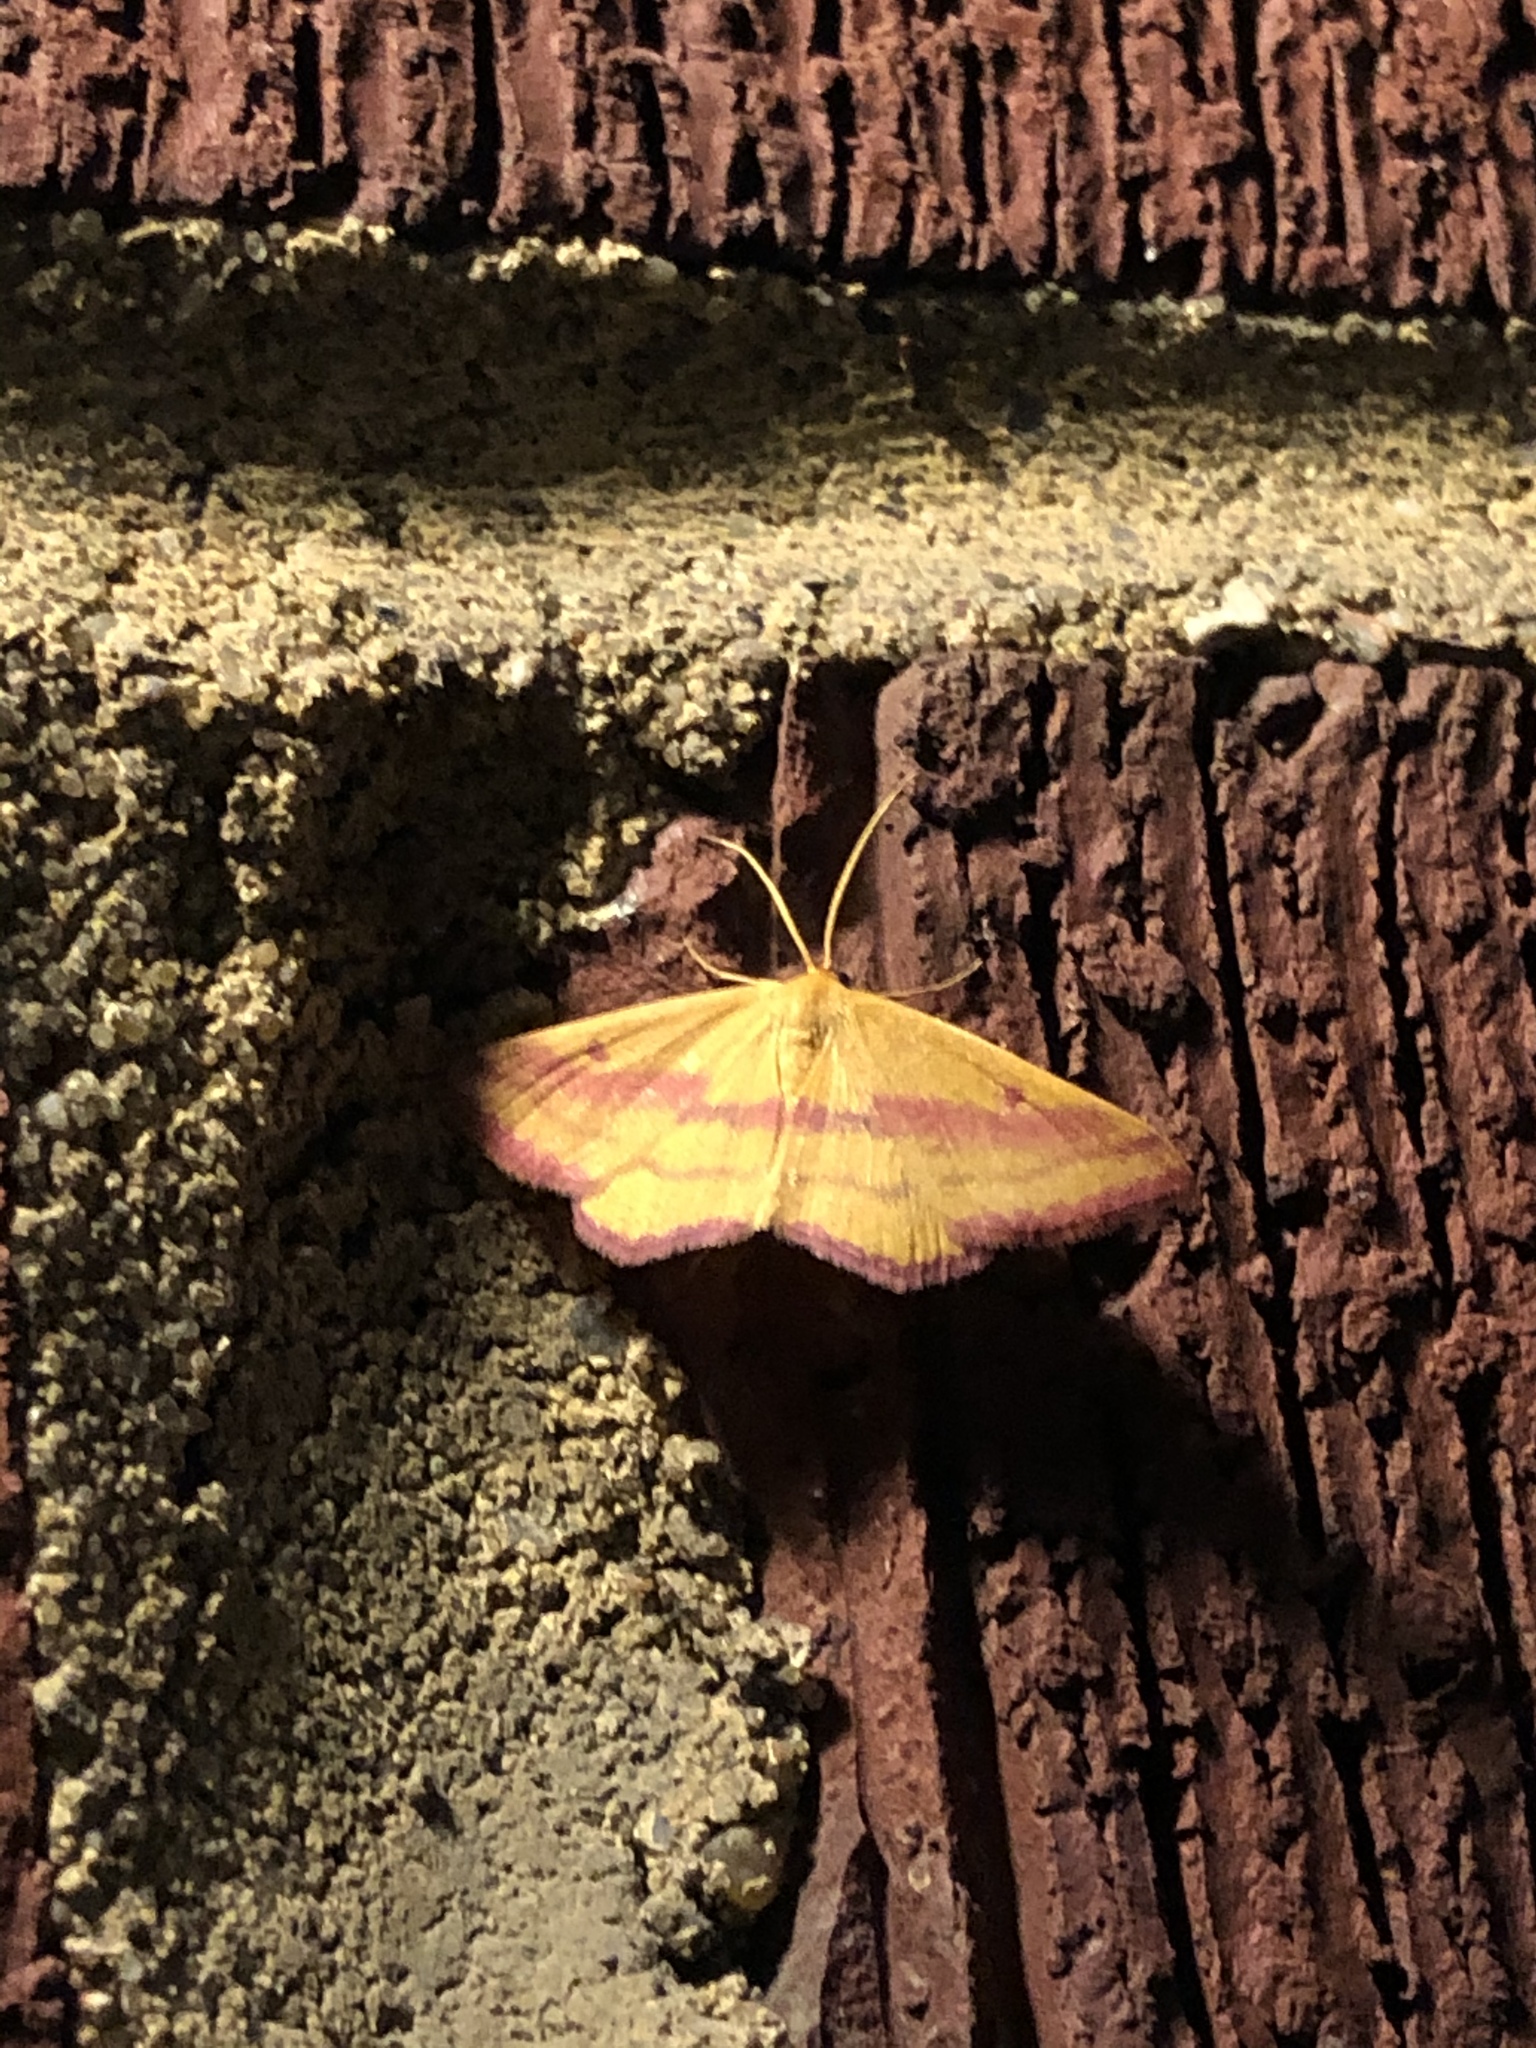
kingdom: Animalia
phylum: Arthropoda
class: Insecta
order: Lepidoptera
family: Geometridae
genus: Haematopis
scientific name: Haematopis grataria
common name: Chickweed geometer
